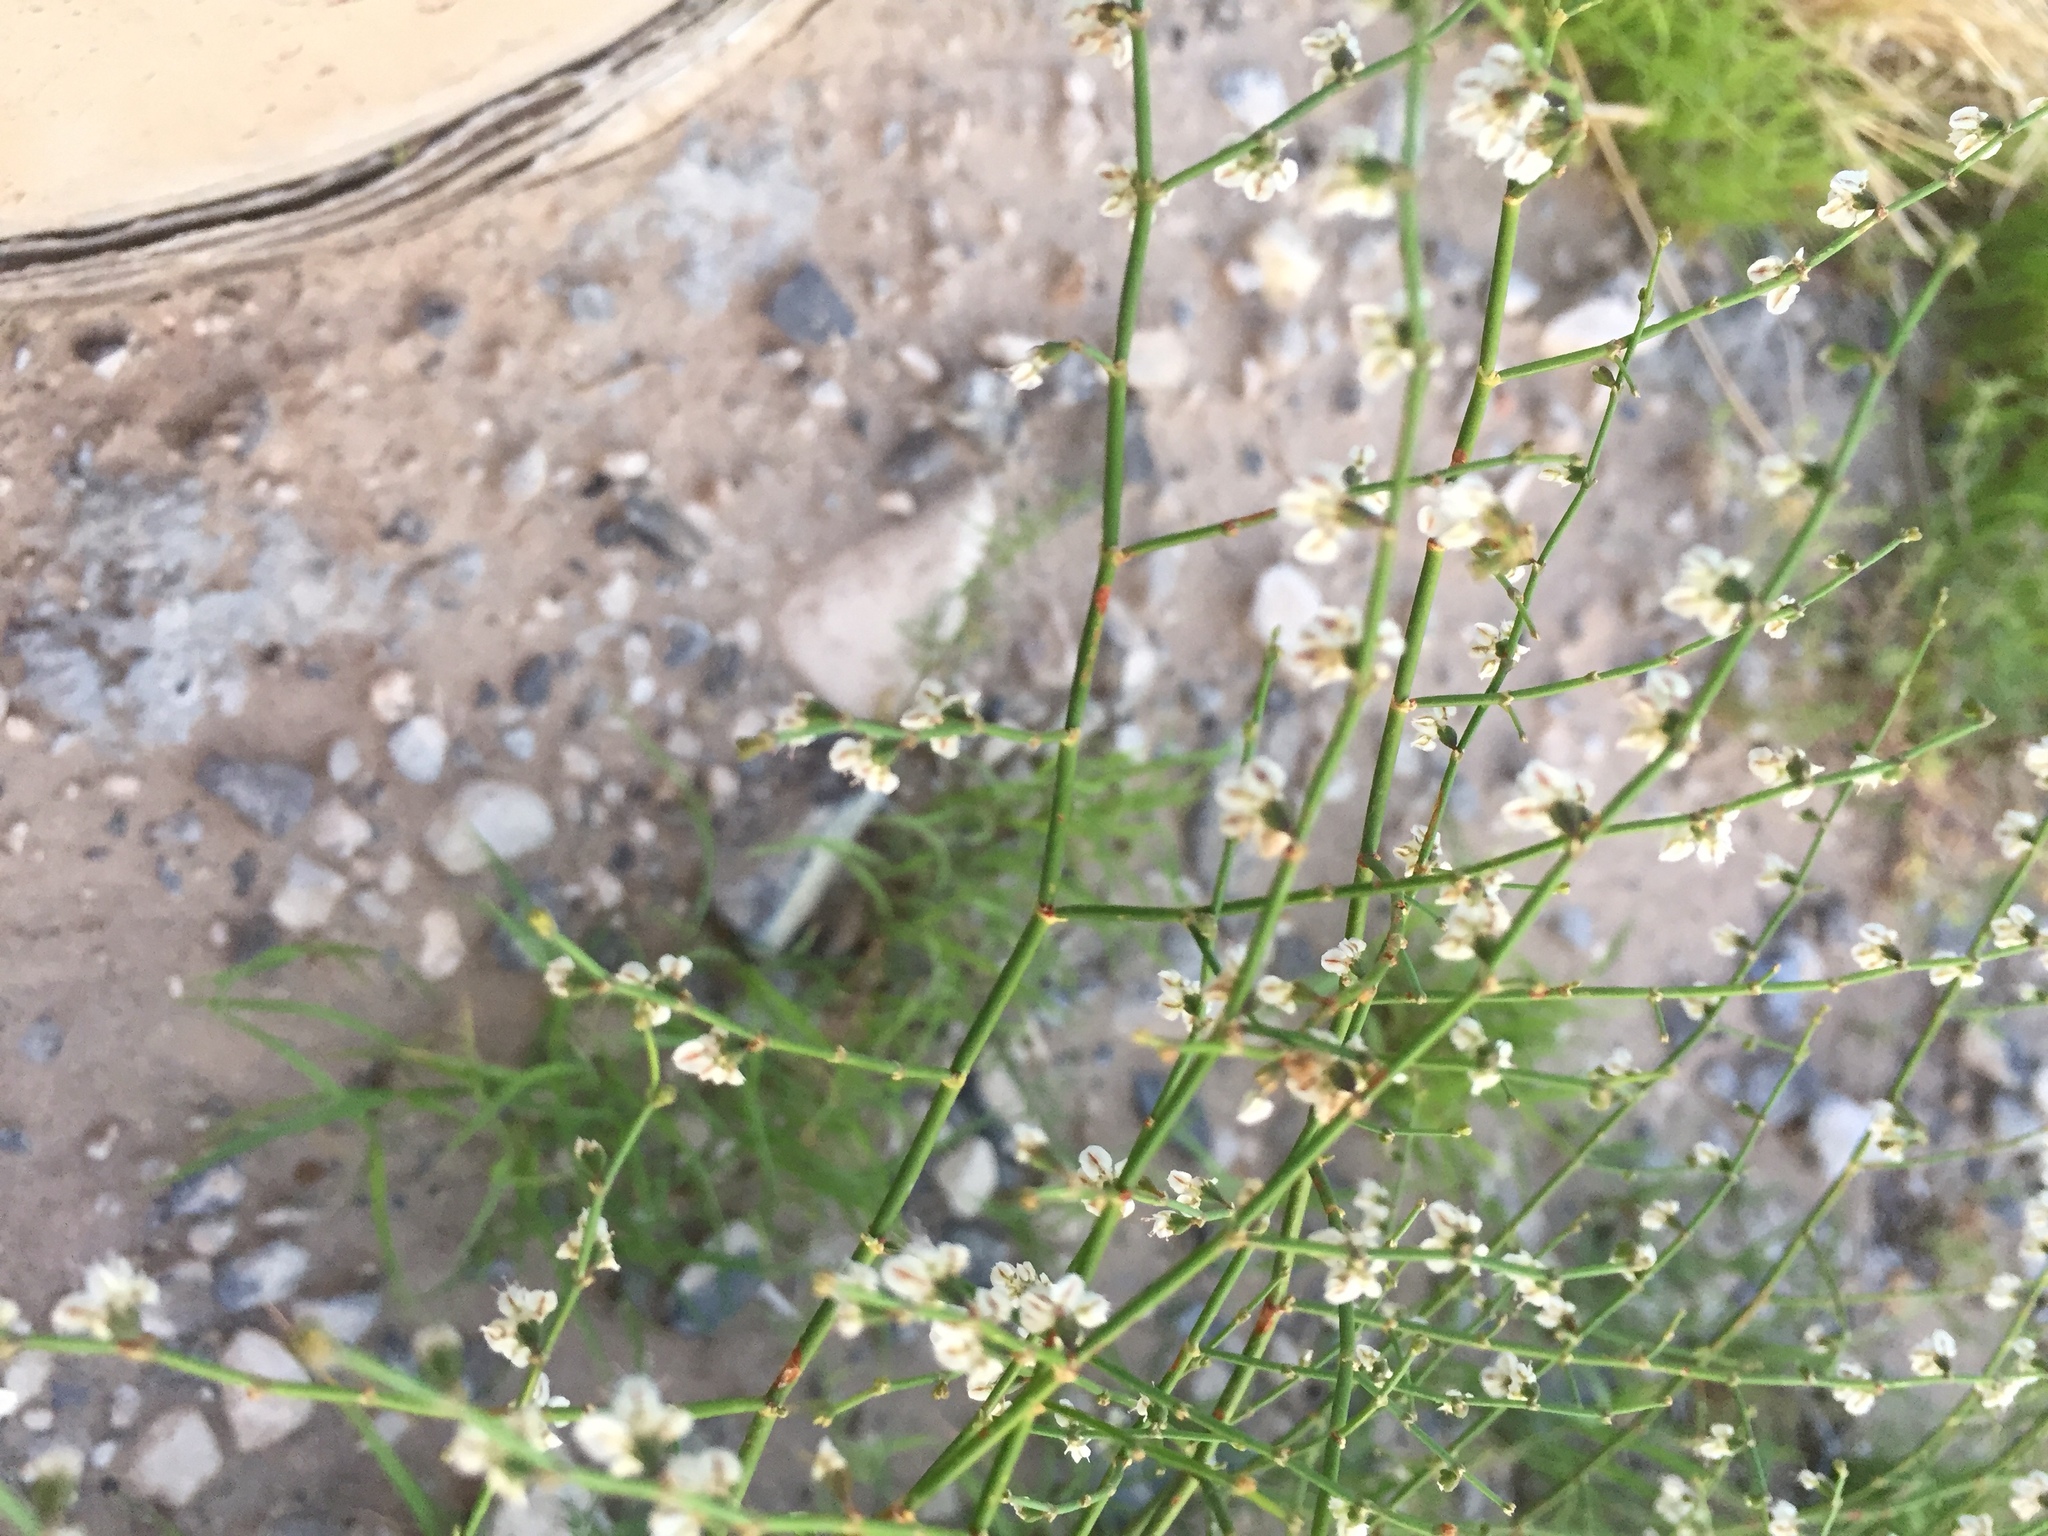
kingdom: Plantae
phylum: Tracheophyta
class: Magnoliopsida
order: Caryophyllales
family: Polygonaceae
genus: Eriogonum
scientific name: Eriogonum deflexum
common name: Skeleton-weed
